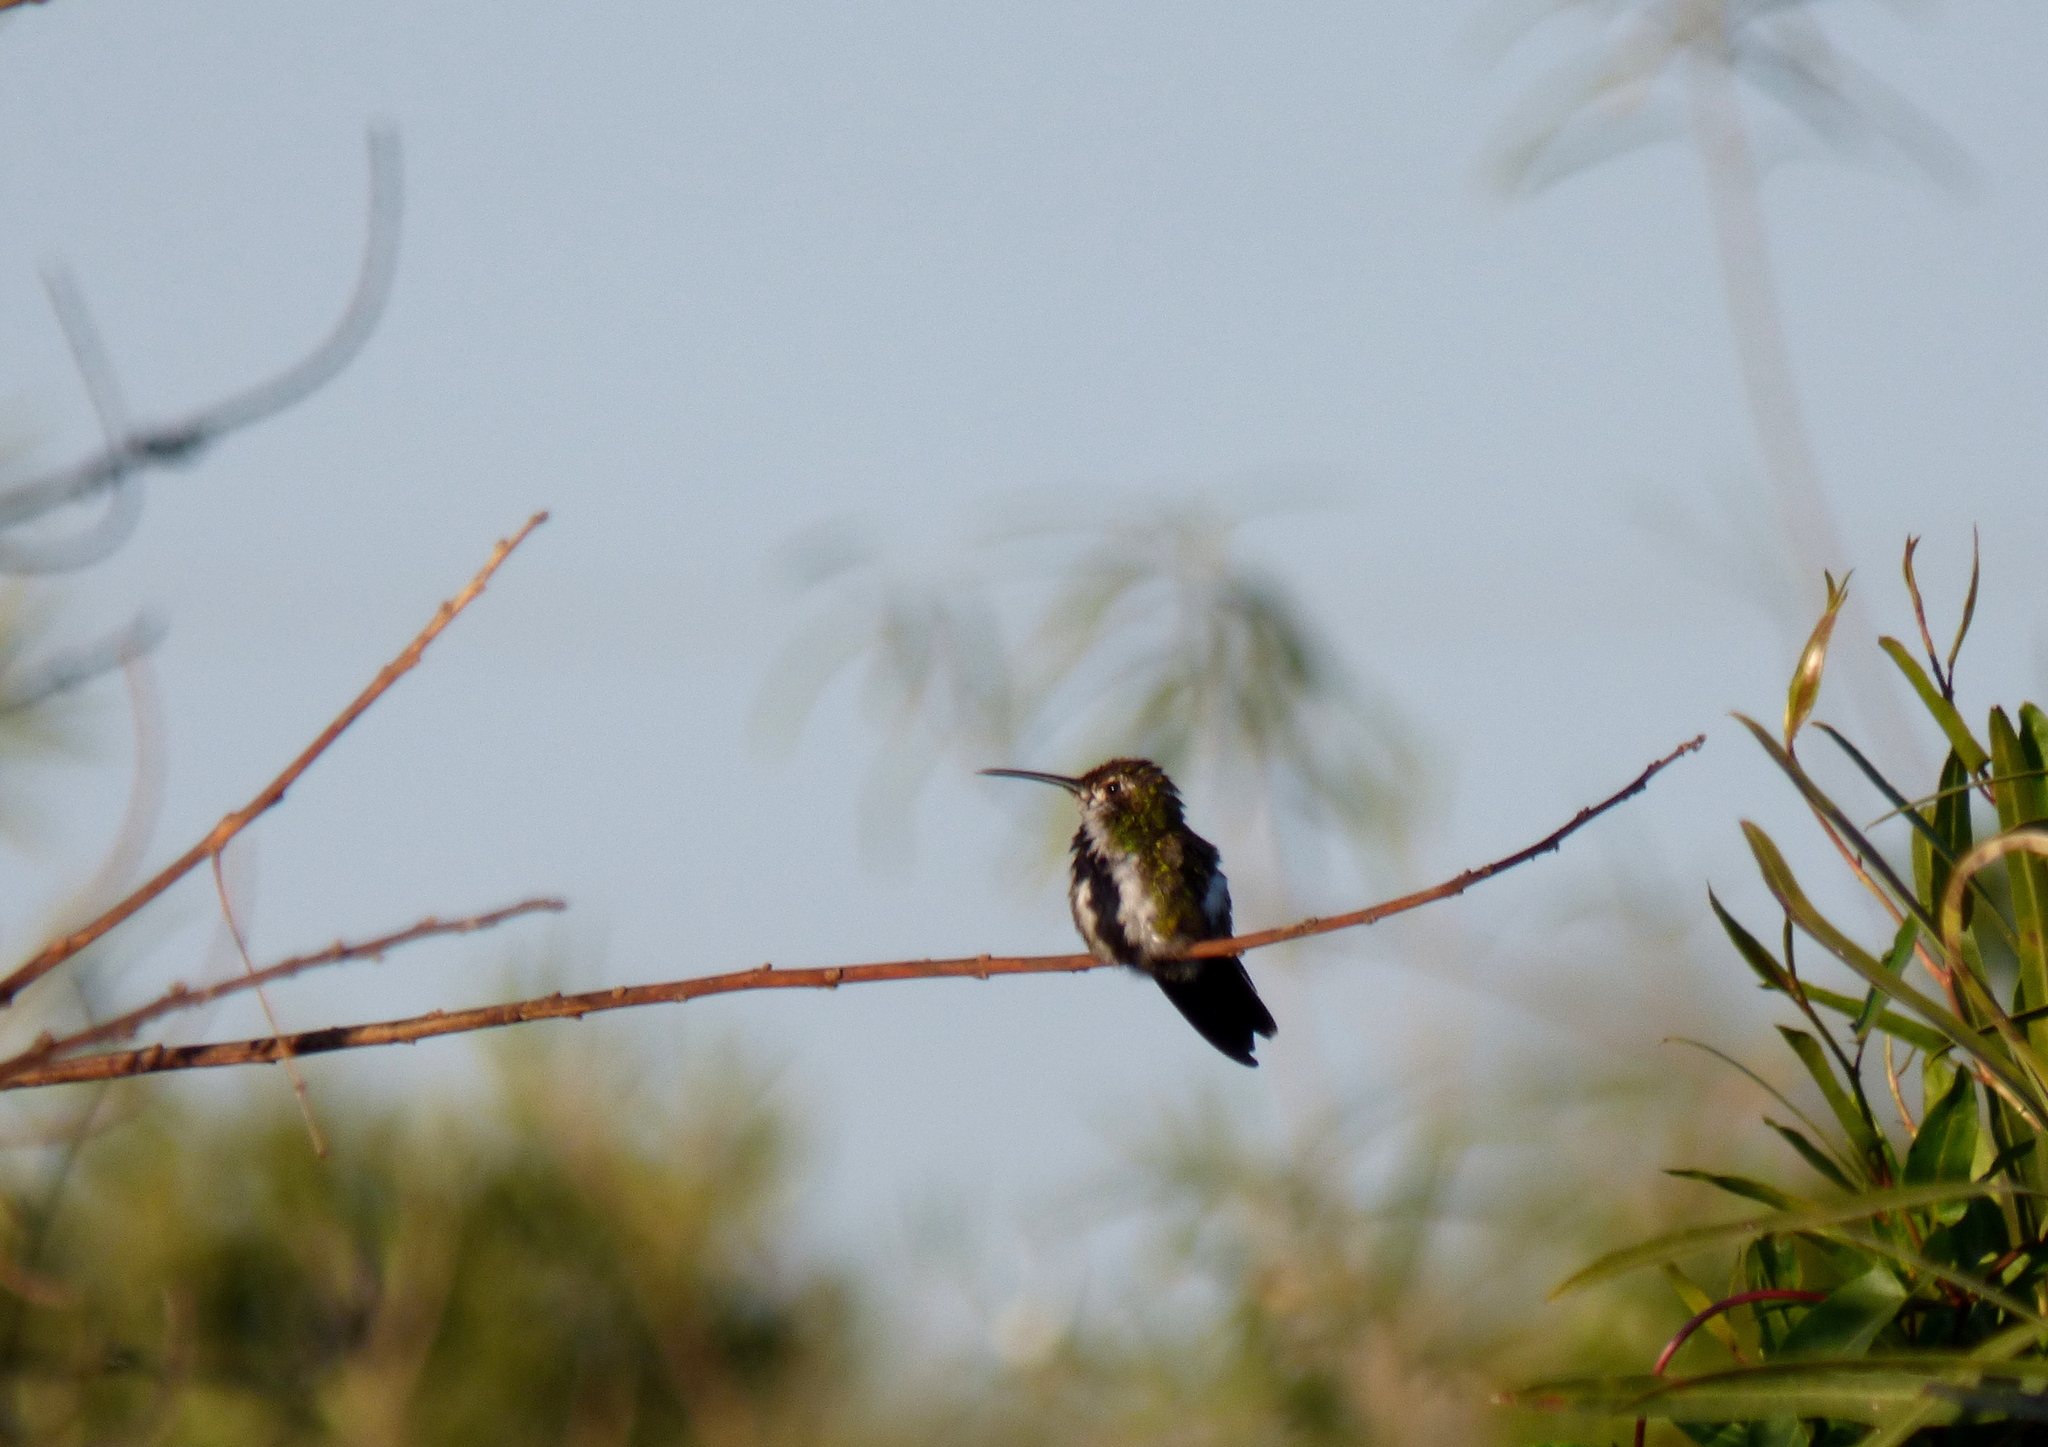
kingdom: Animalia
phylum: Chordata
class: Aves
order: Apodiformes
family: Trochilidae
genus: Anthracothorax
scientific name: Anthracothorax nigricollis
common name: Black-throated mango
